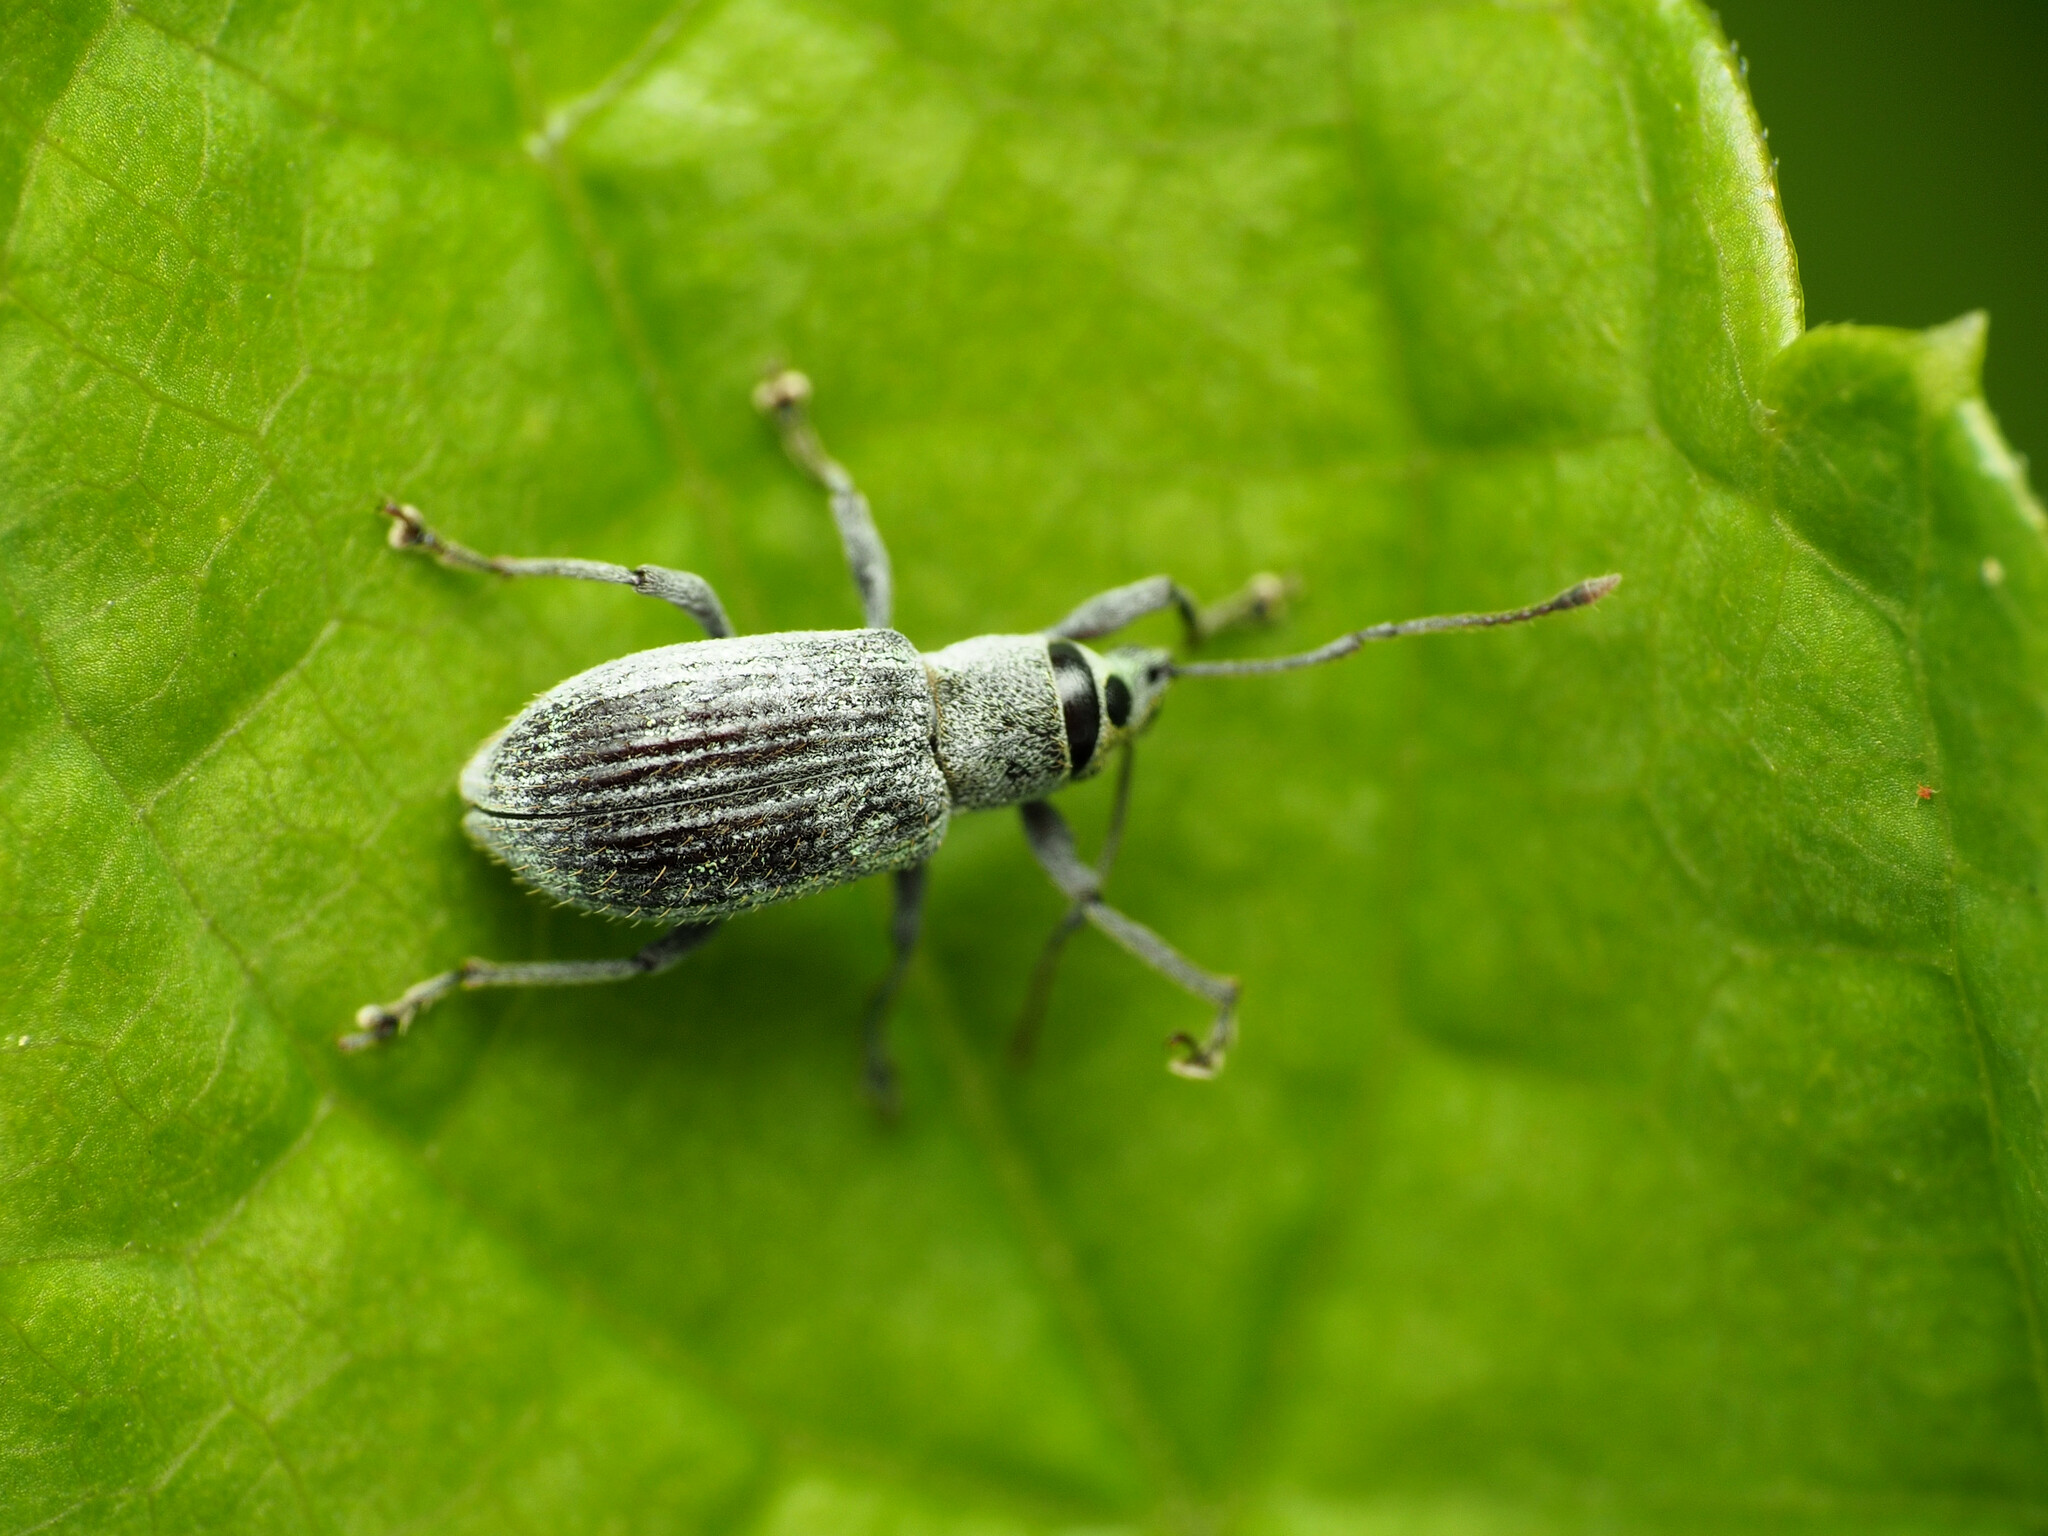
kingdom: Animalia
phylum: Arthropoda
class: Insecta
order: Coleoptera
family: Curculionidae
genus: Cyrtepistomus
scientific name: Cyrtepistomus castaneus
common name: Weevil
